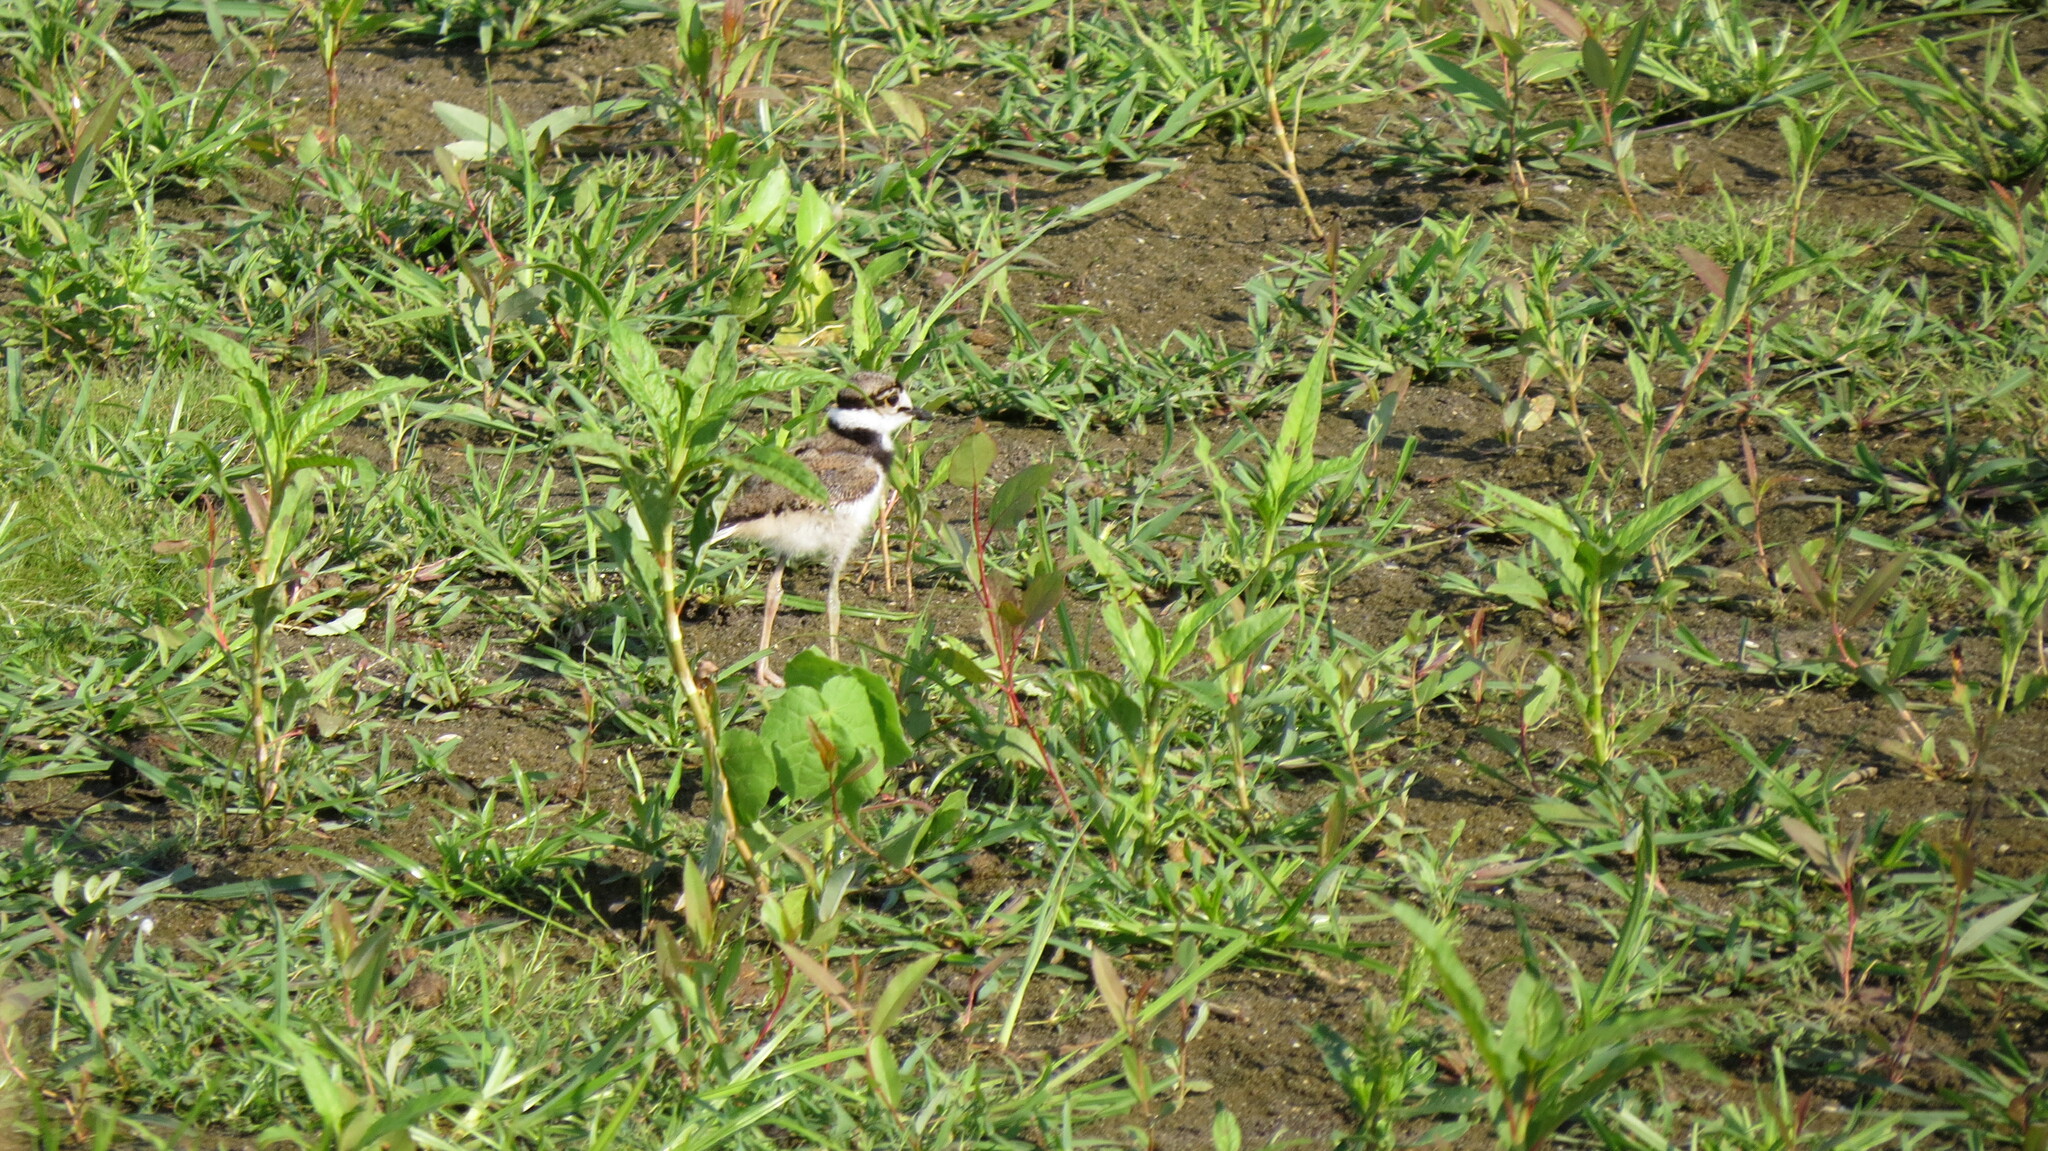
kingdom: Animalia
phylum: Chordata
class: Aves
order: Charadriiformes
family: Charadriidae
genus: Charadrius
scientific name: Charadrius vociferus
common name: Killdeer
